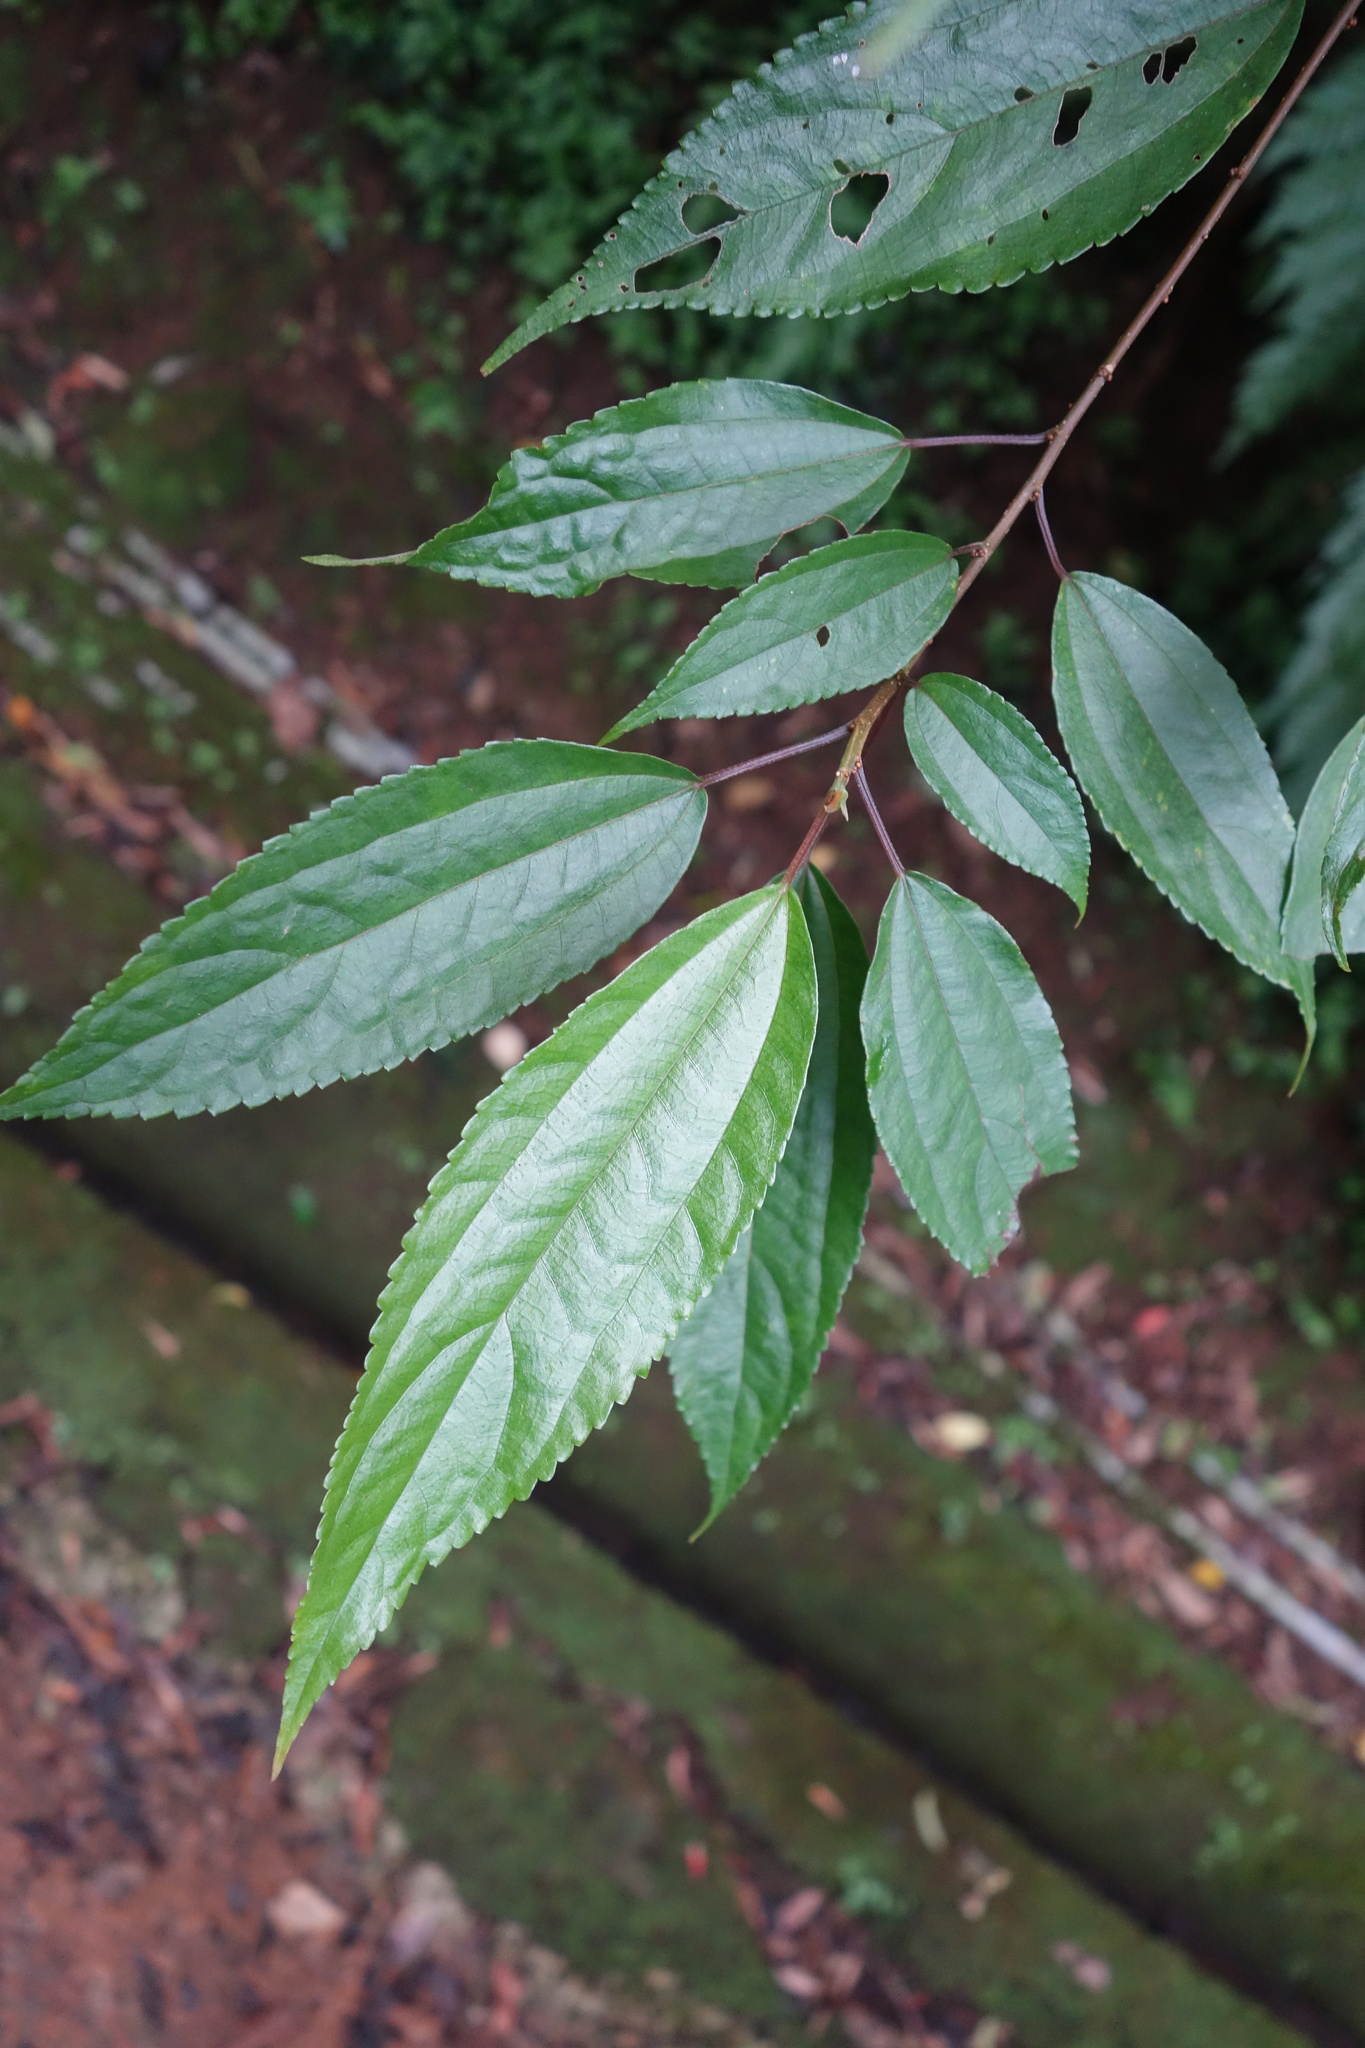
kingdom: Plantae
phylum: Tracheophyta
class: Magnoliopsida
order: Rosales
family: Urticaceae
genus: Oreocnide
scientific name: Oreocnide pedunculata
